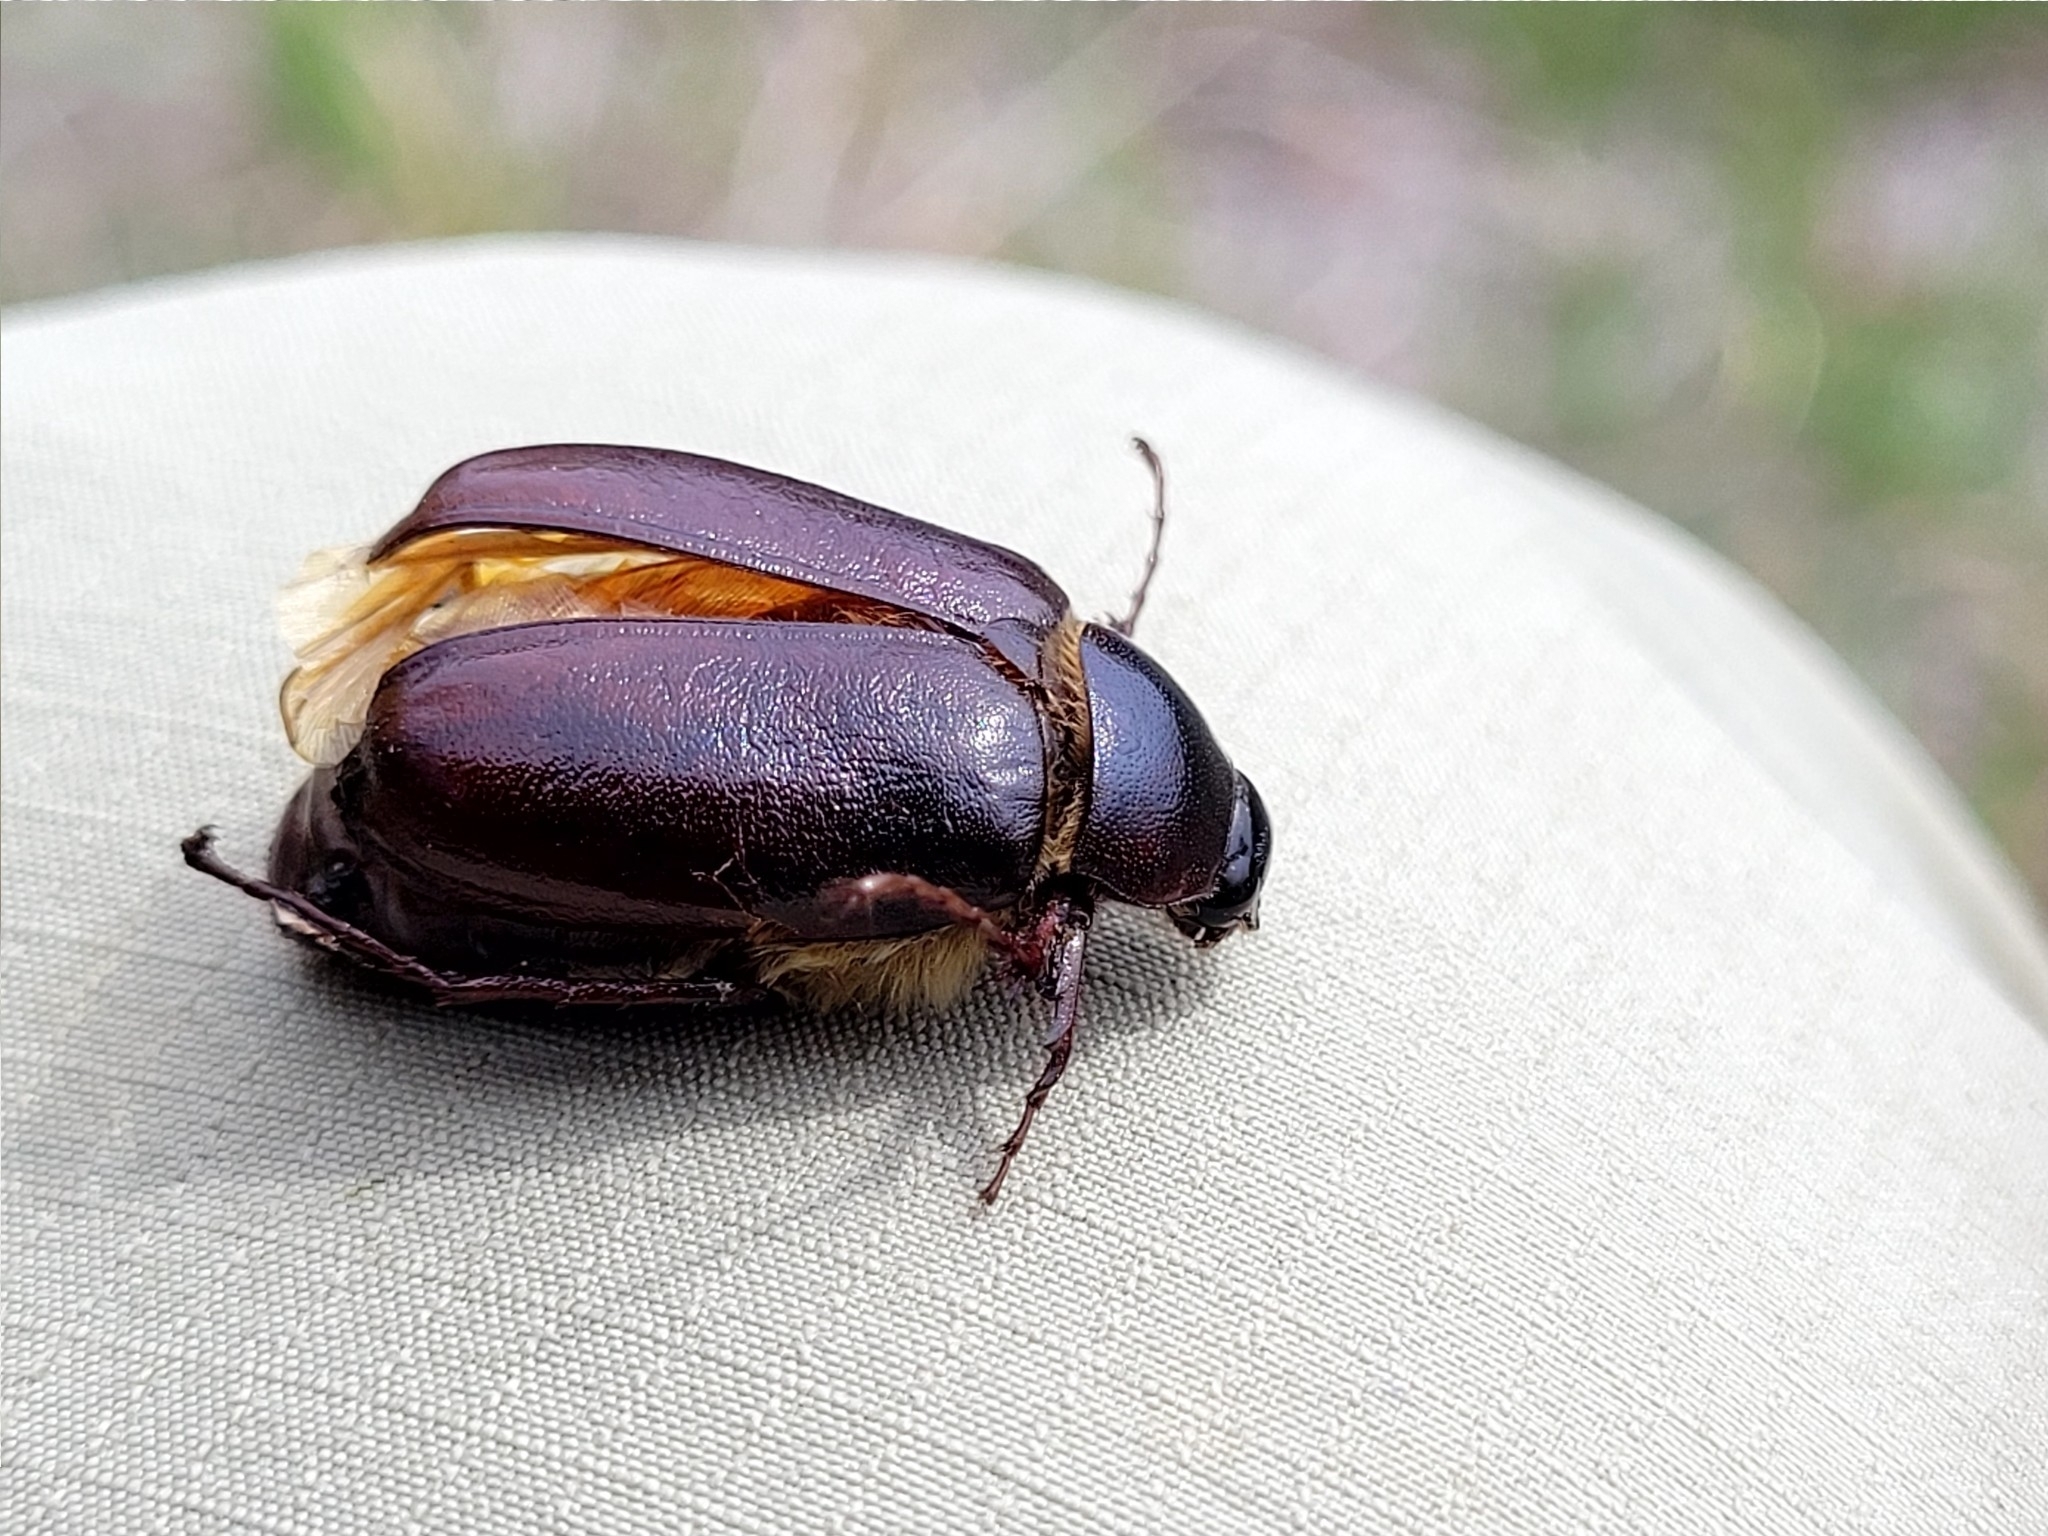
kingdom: Animalia
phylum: Arthropoda
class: Insecta
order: Coleoptera
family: Scarabaeidae
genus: Phyllophaga
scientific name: Phyllophaga drakii
